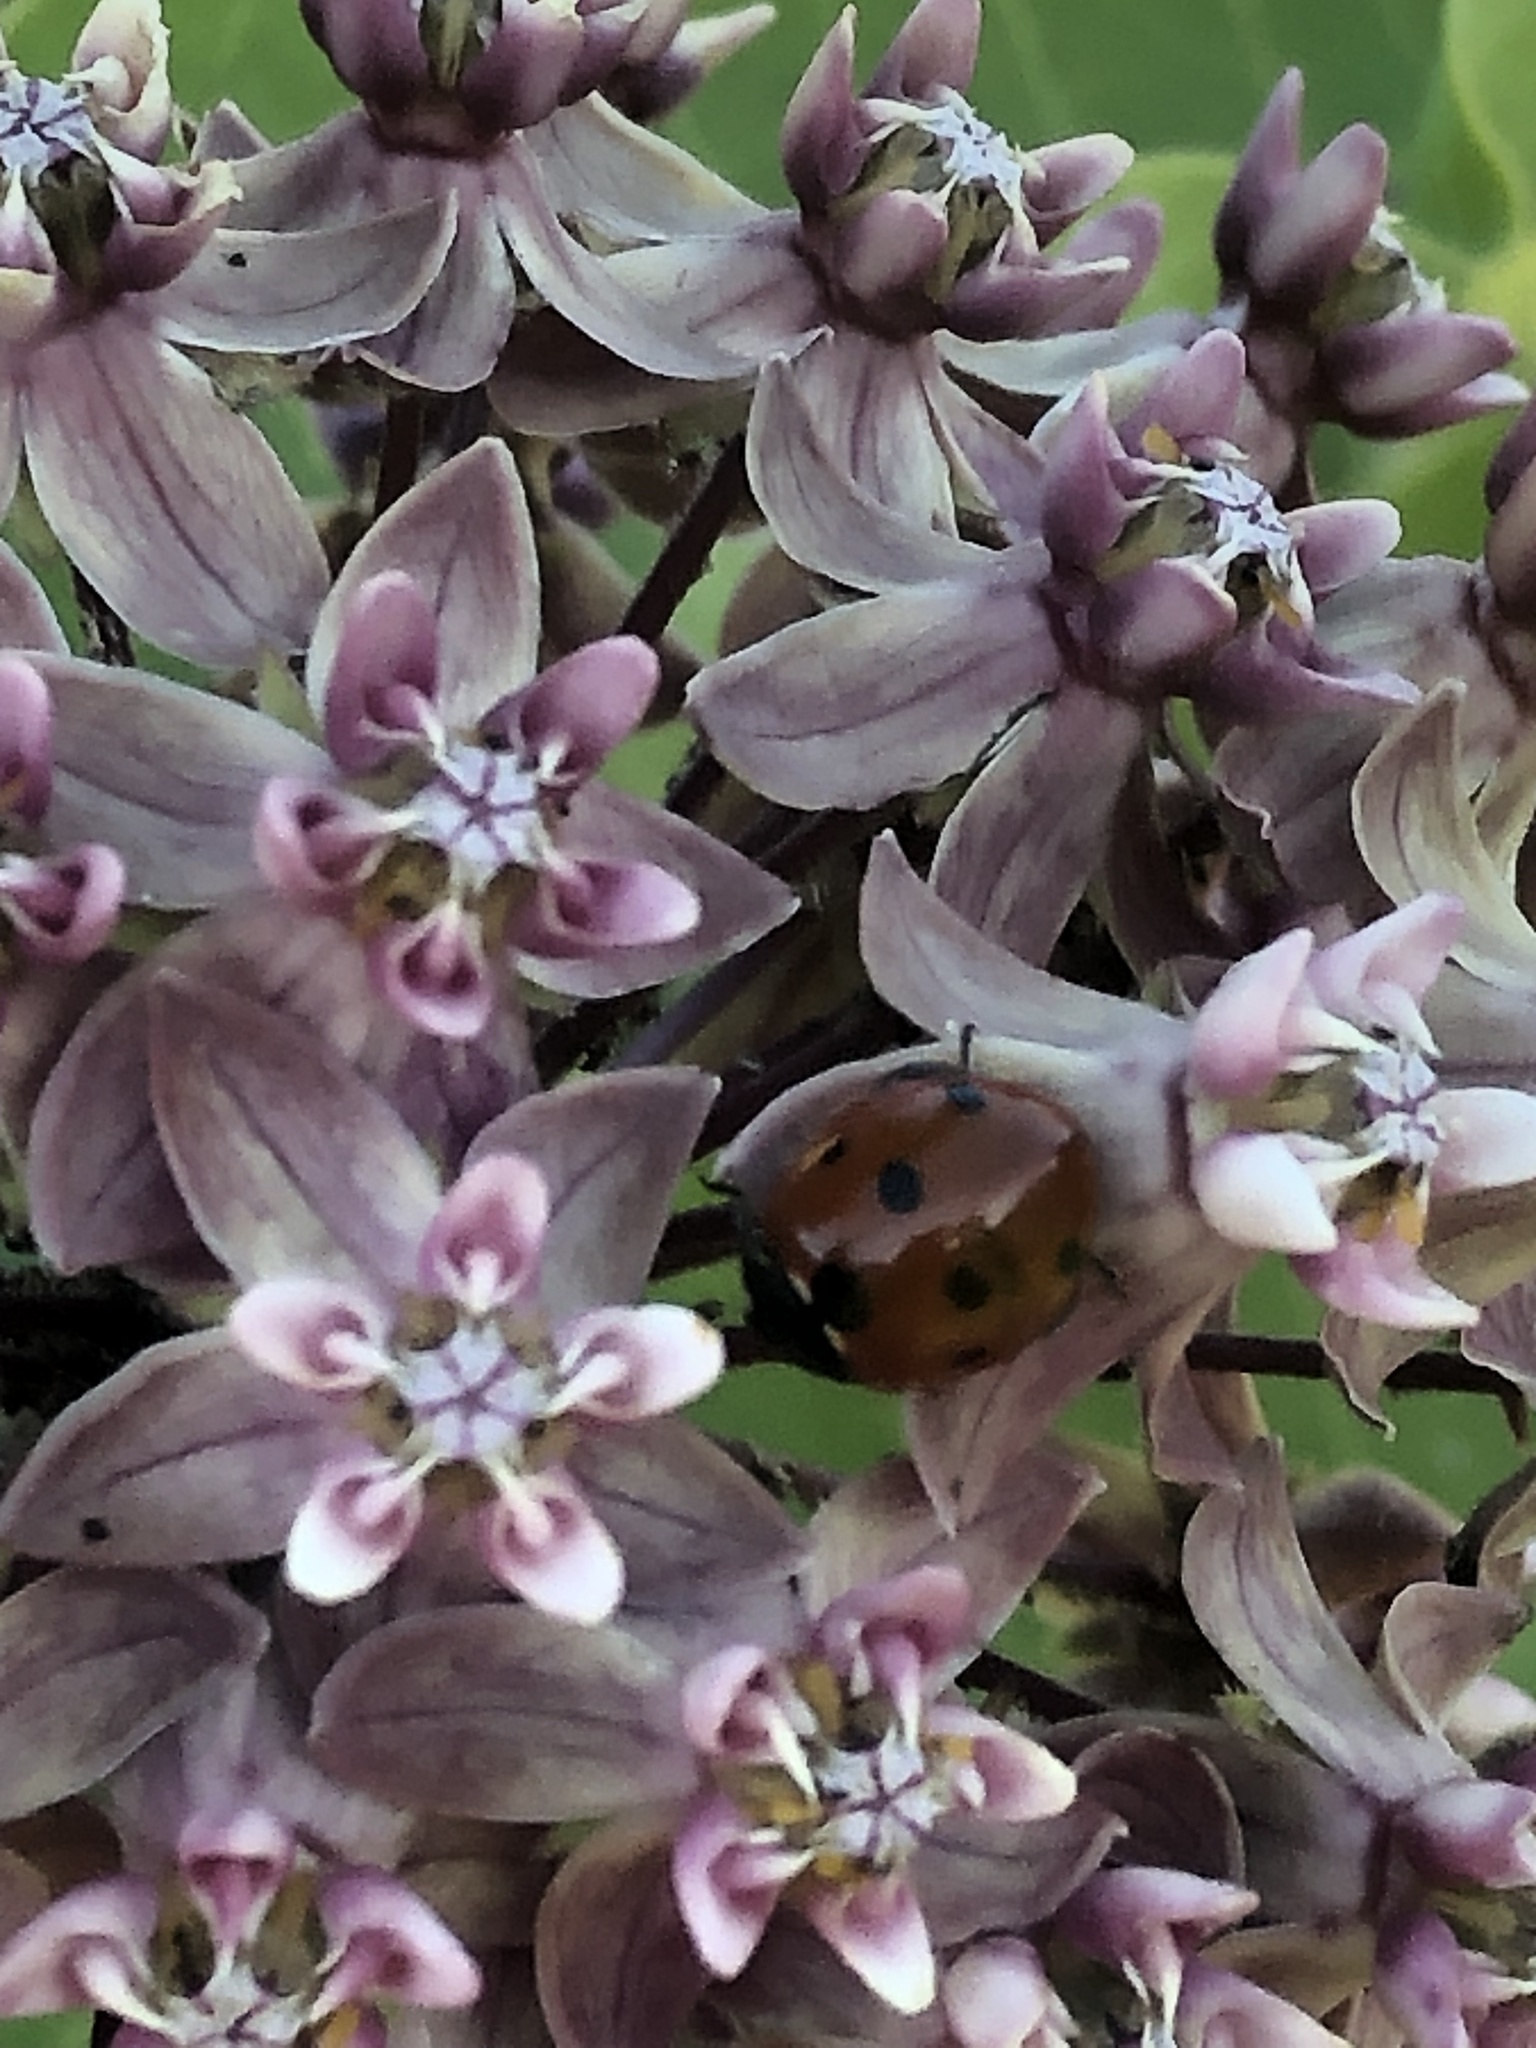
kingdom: Animalia
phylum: Arthropoda
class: Insecta
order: Coleoptera
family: Coccinellidae
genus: Coccinella
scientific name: Coccinella septempunctata
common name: Sevenspotted lady beetle
